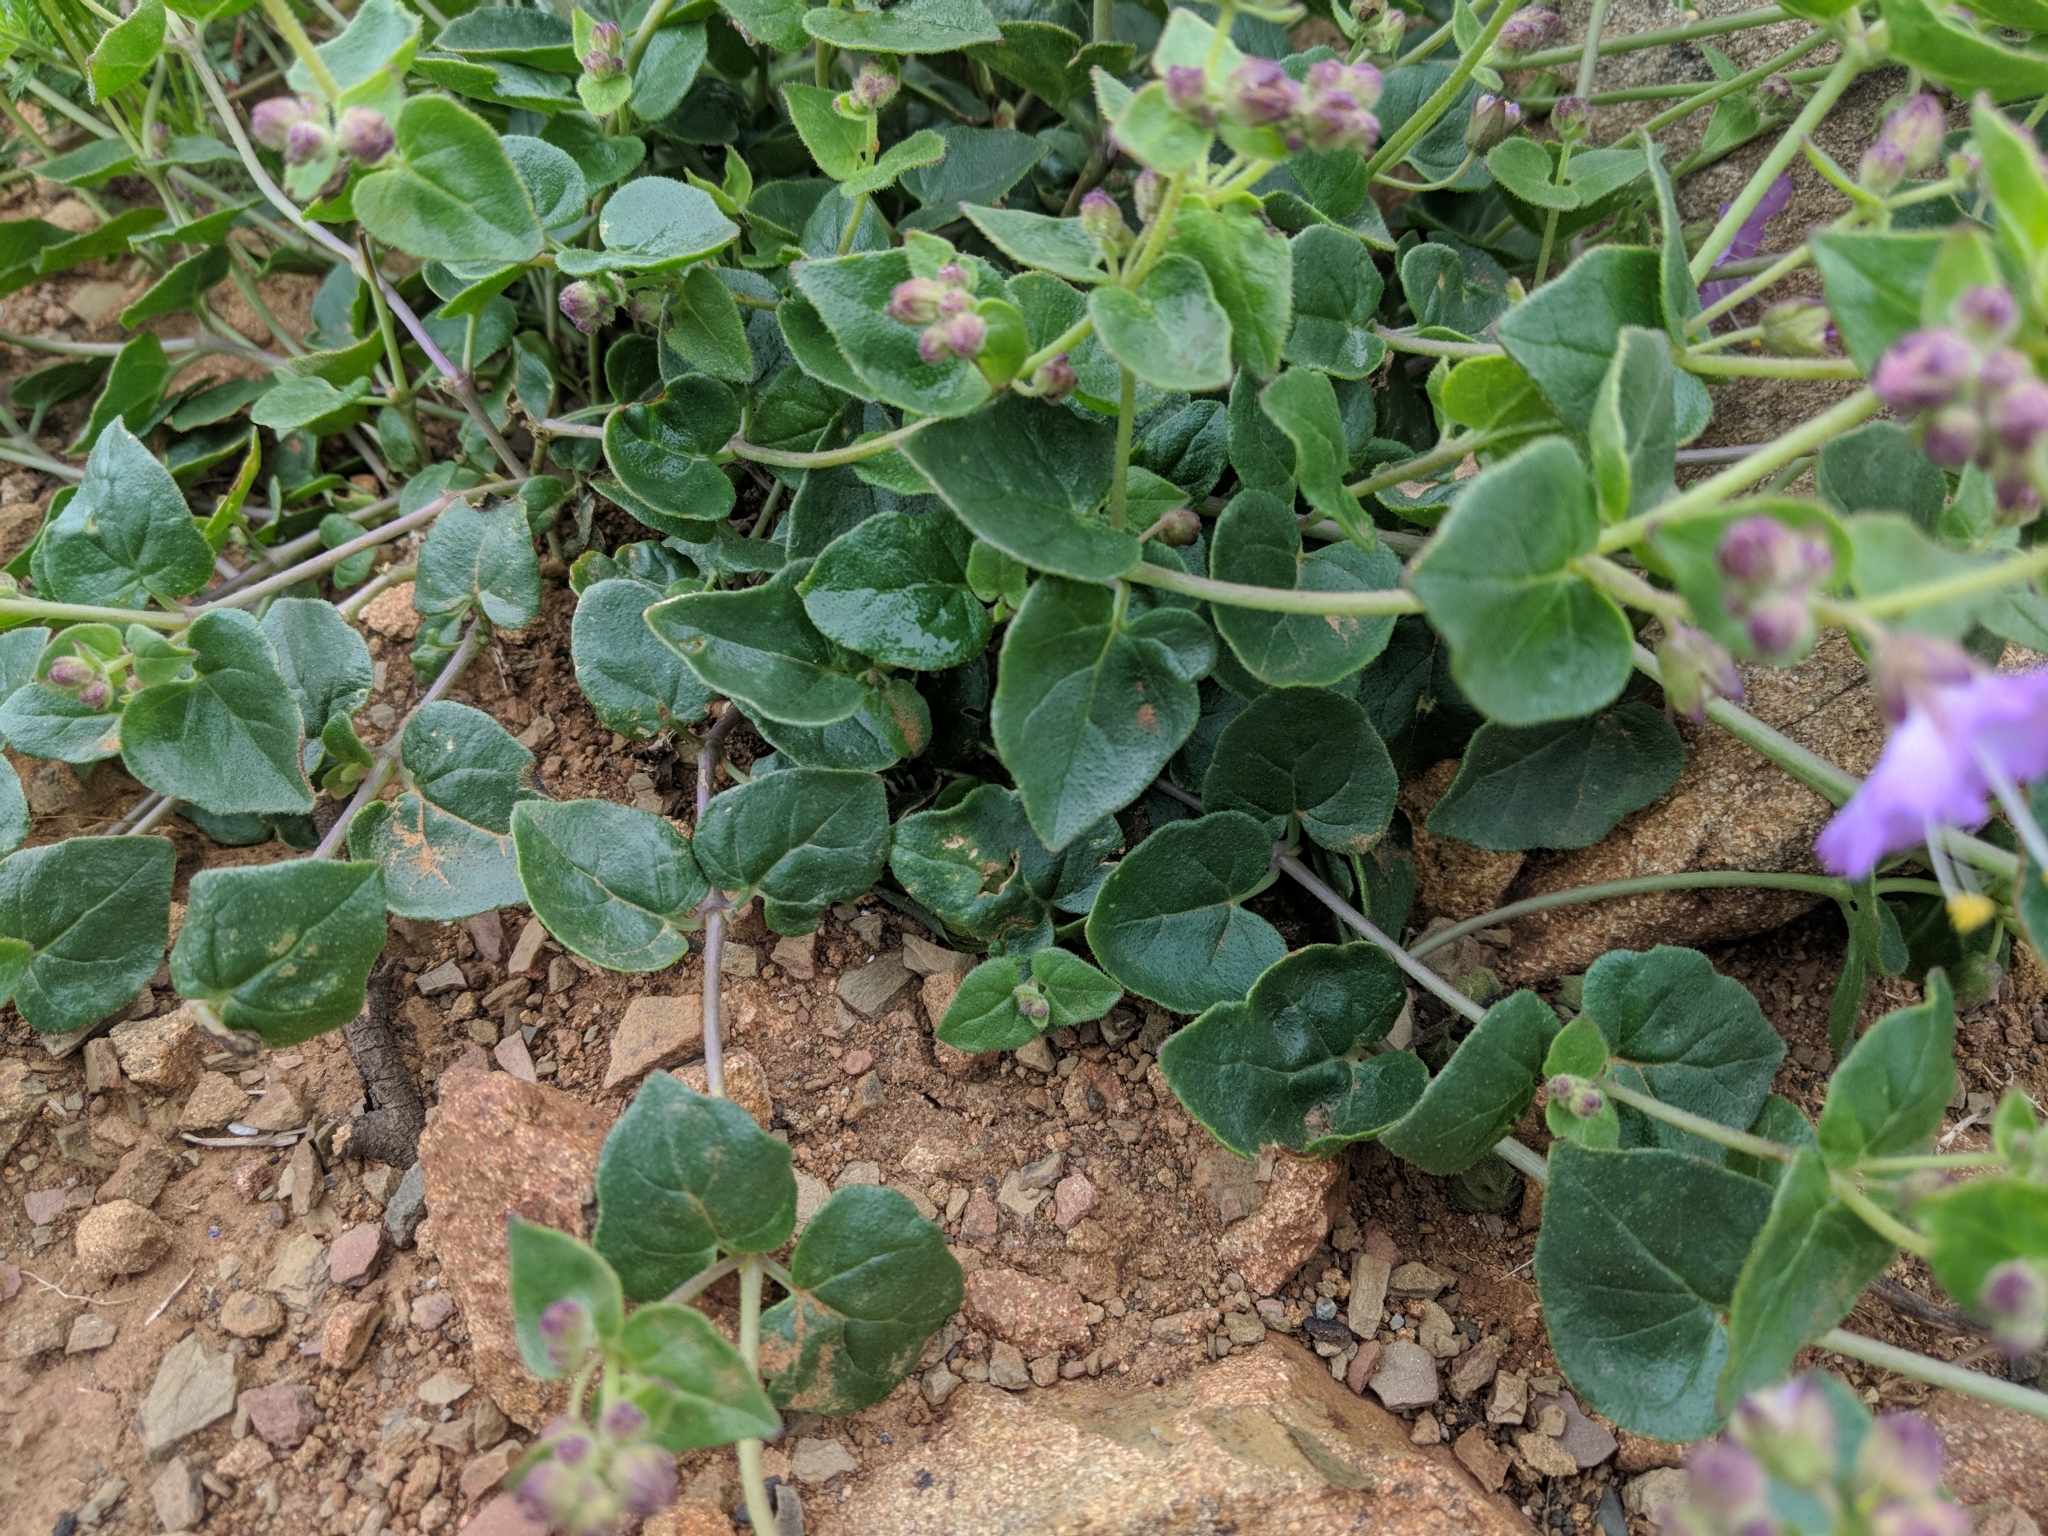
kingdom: Plantae
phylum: Tracheophyta
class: Magnoliopsida
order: Caryophyllales
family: Nyctaginaceae
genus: Mirabilis
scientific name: Mirabilis laevis
